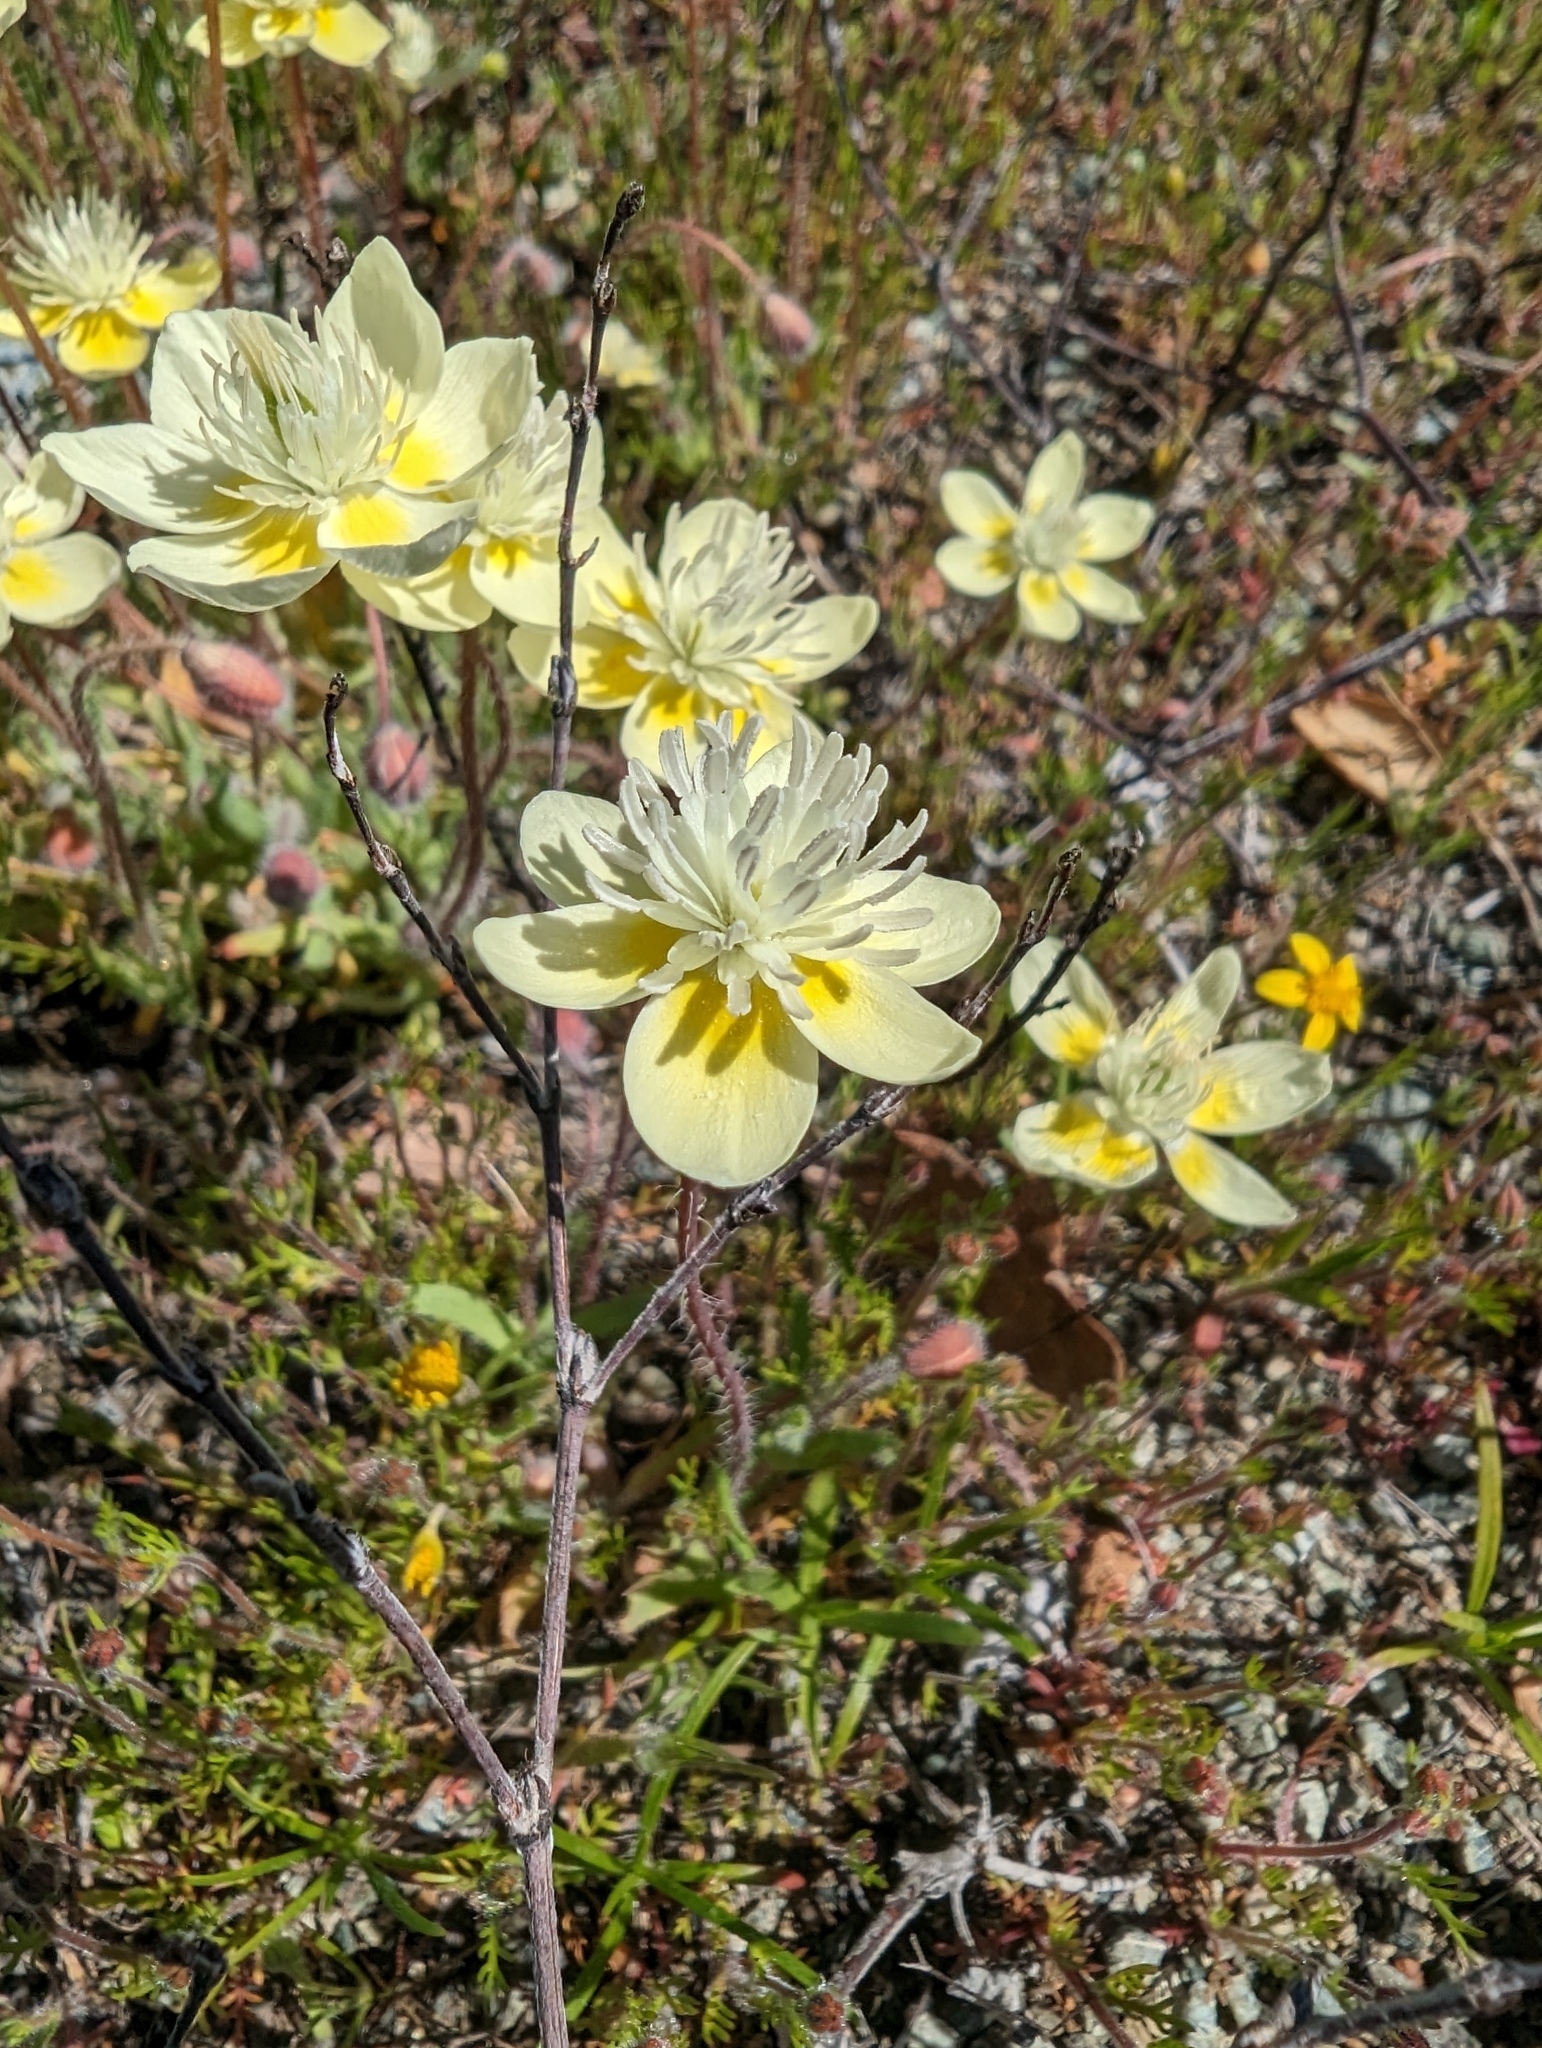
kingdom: Plantae
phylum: Tracheophyta
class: Magnoliopsida
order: Ranunculales
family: Papaveraceae
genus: Platystemon
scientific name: Platystemon californicus
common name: Cream-cups
